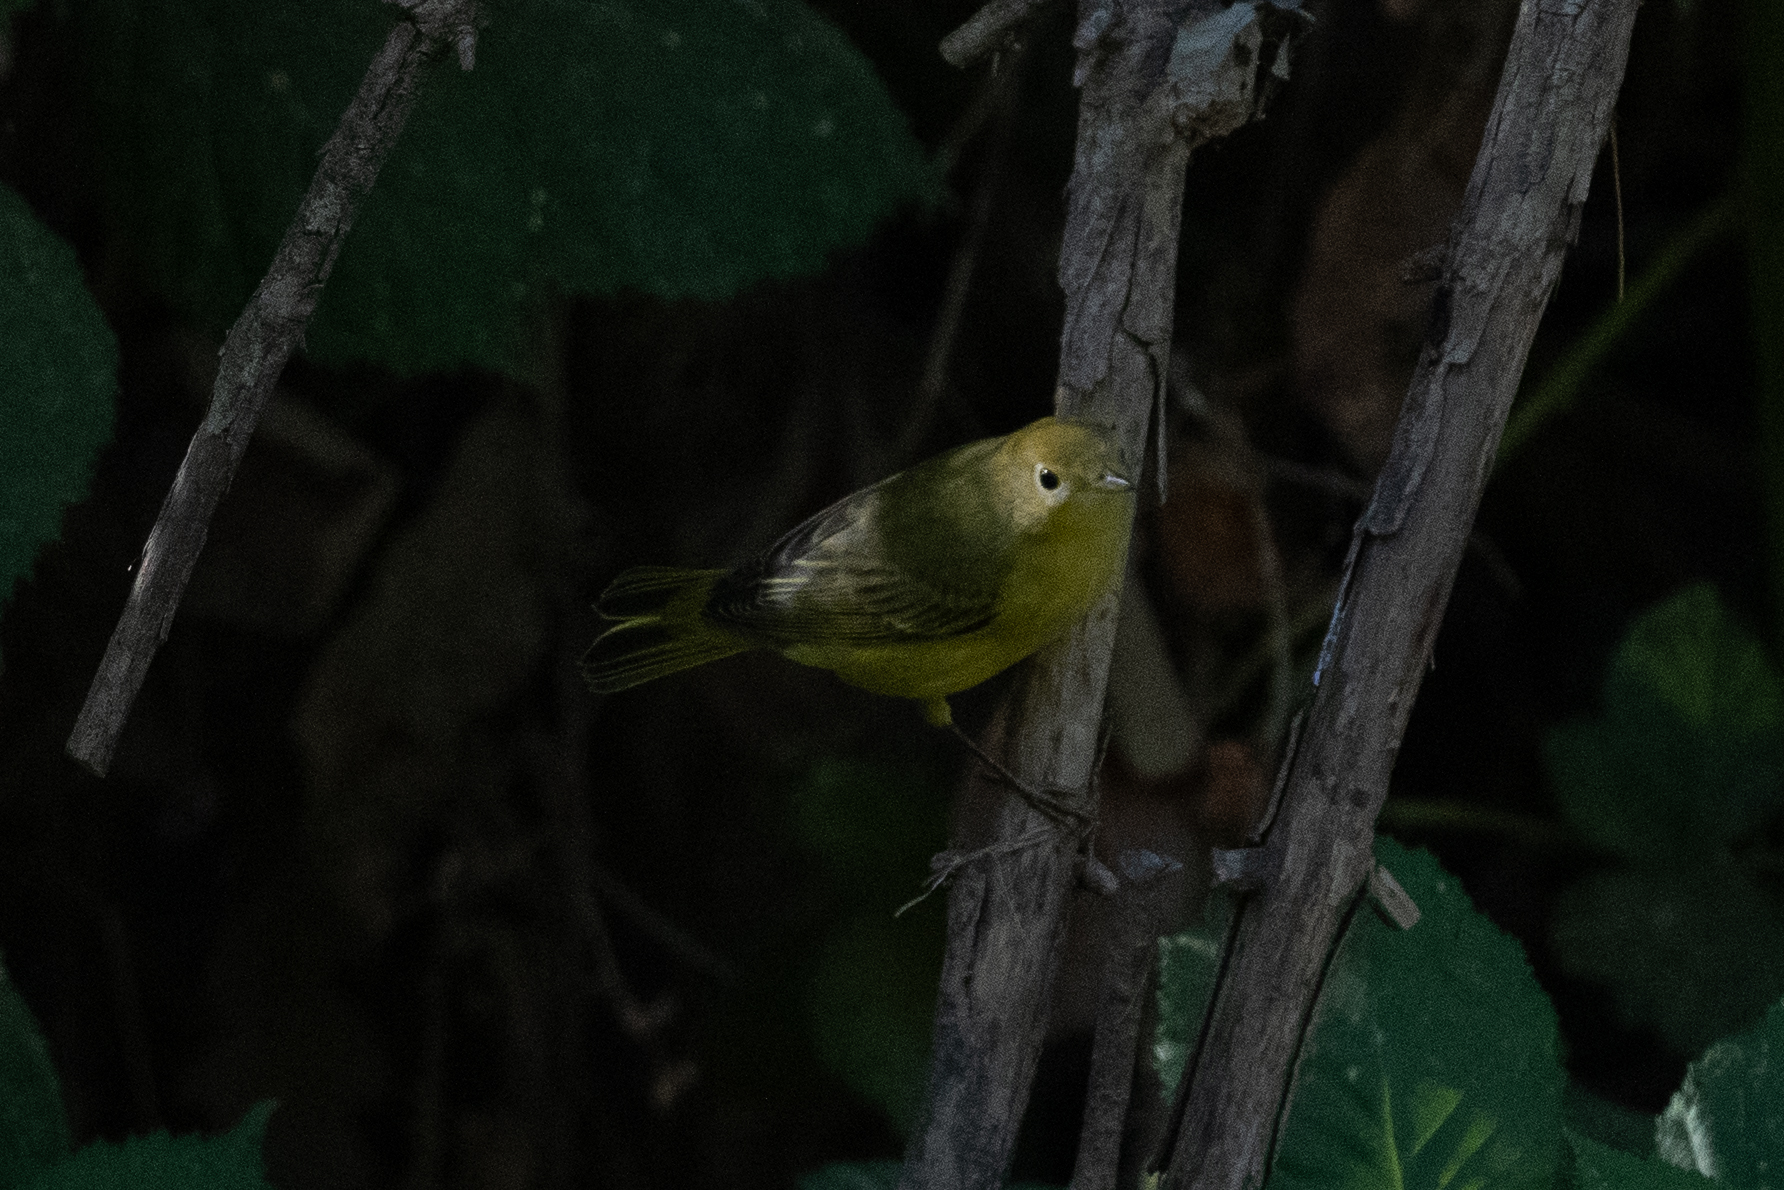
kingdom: Animalia
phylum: Chordata
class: Aves
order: Passeriformes
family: Parulidae
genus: Setophaga
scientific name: Setophaga petechia
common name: Yellow warbler
